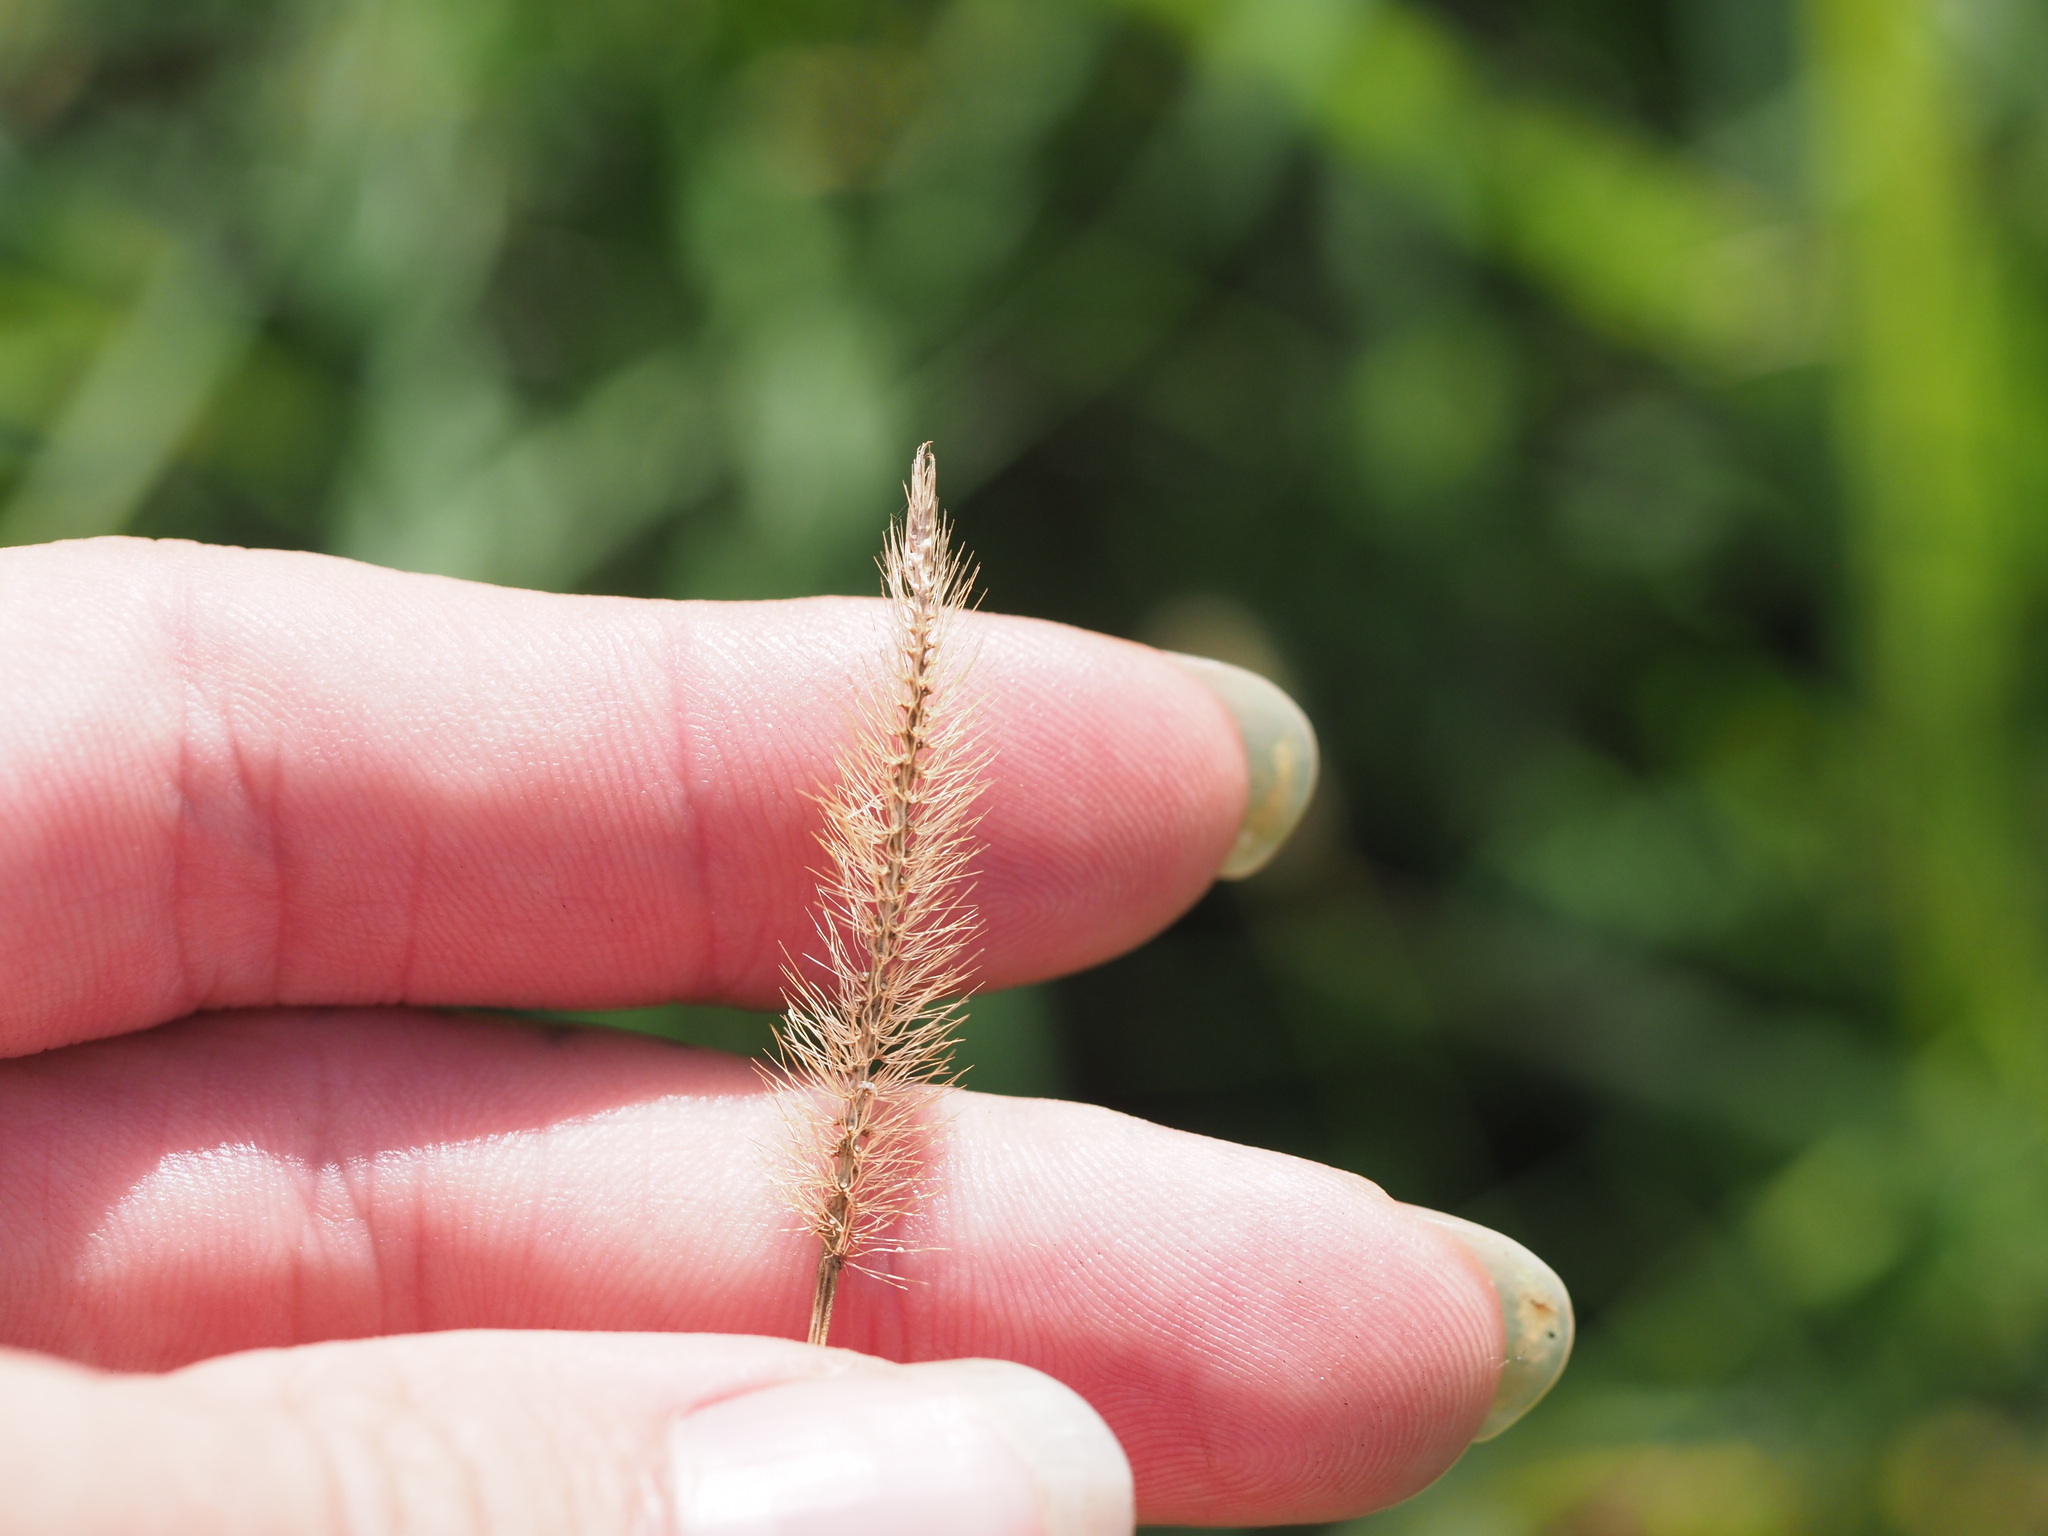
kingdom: Plantae
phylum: Tracheophyta
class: Liliopsida
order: Poales
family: Poaceae
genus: Setaria
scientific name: Setaria parviflora
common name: Knotroot bristle-grass
